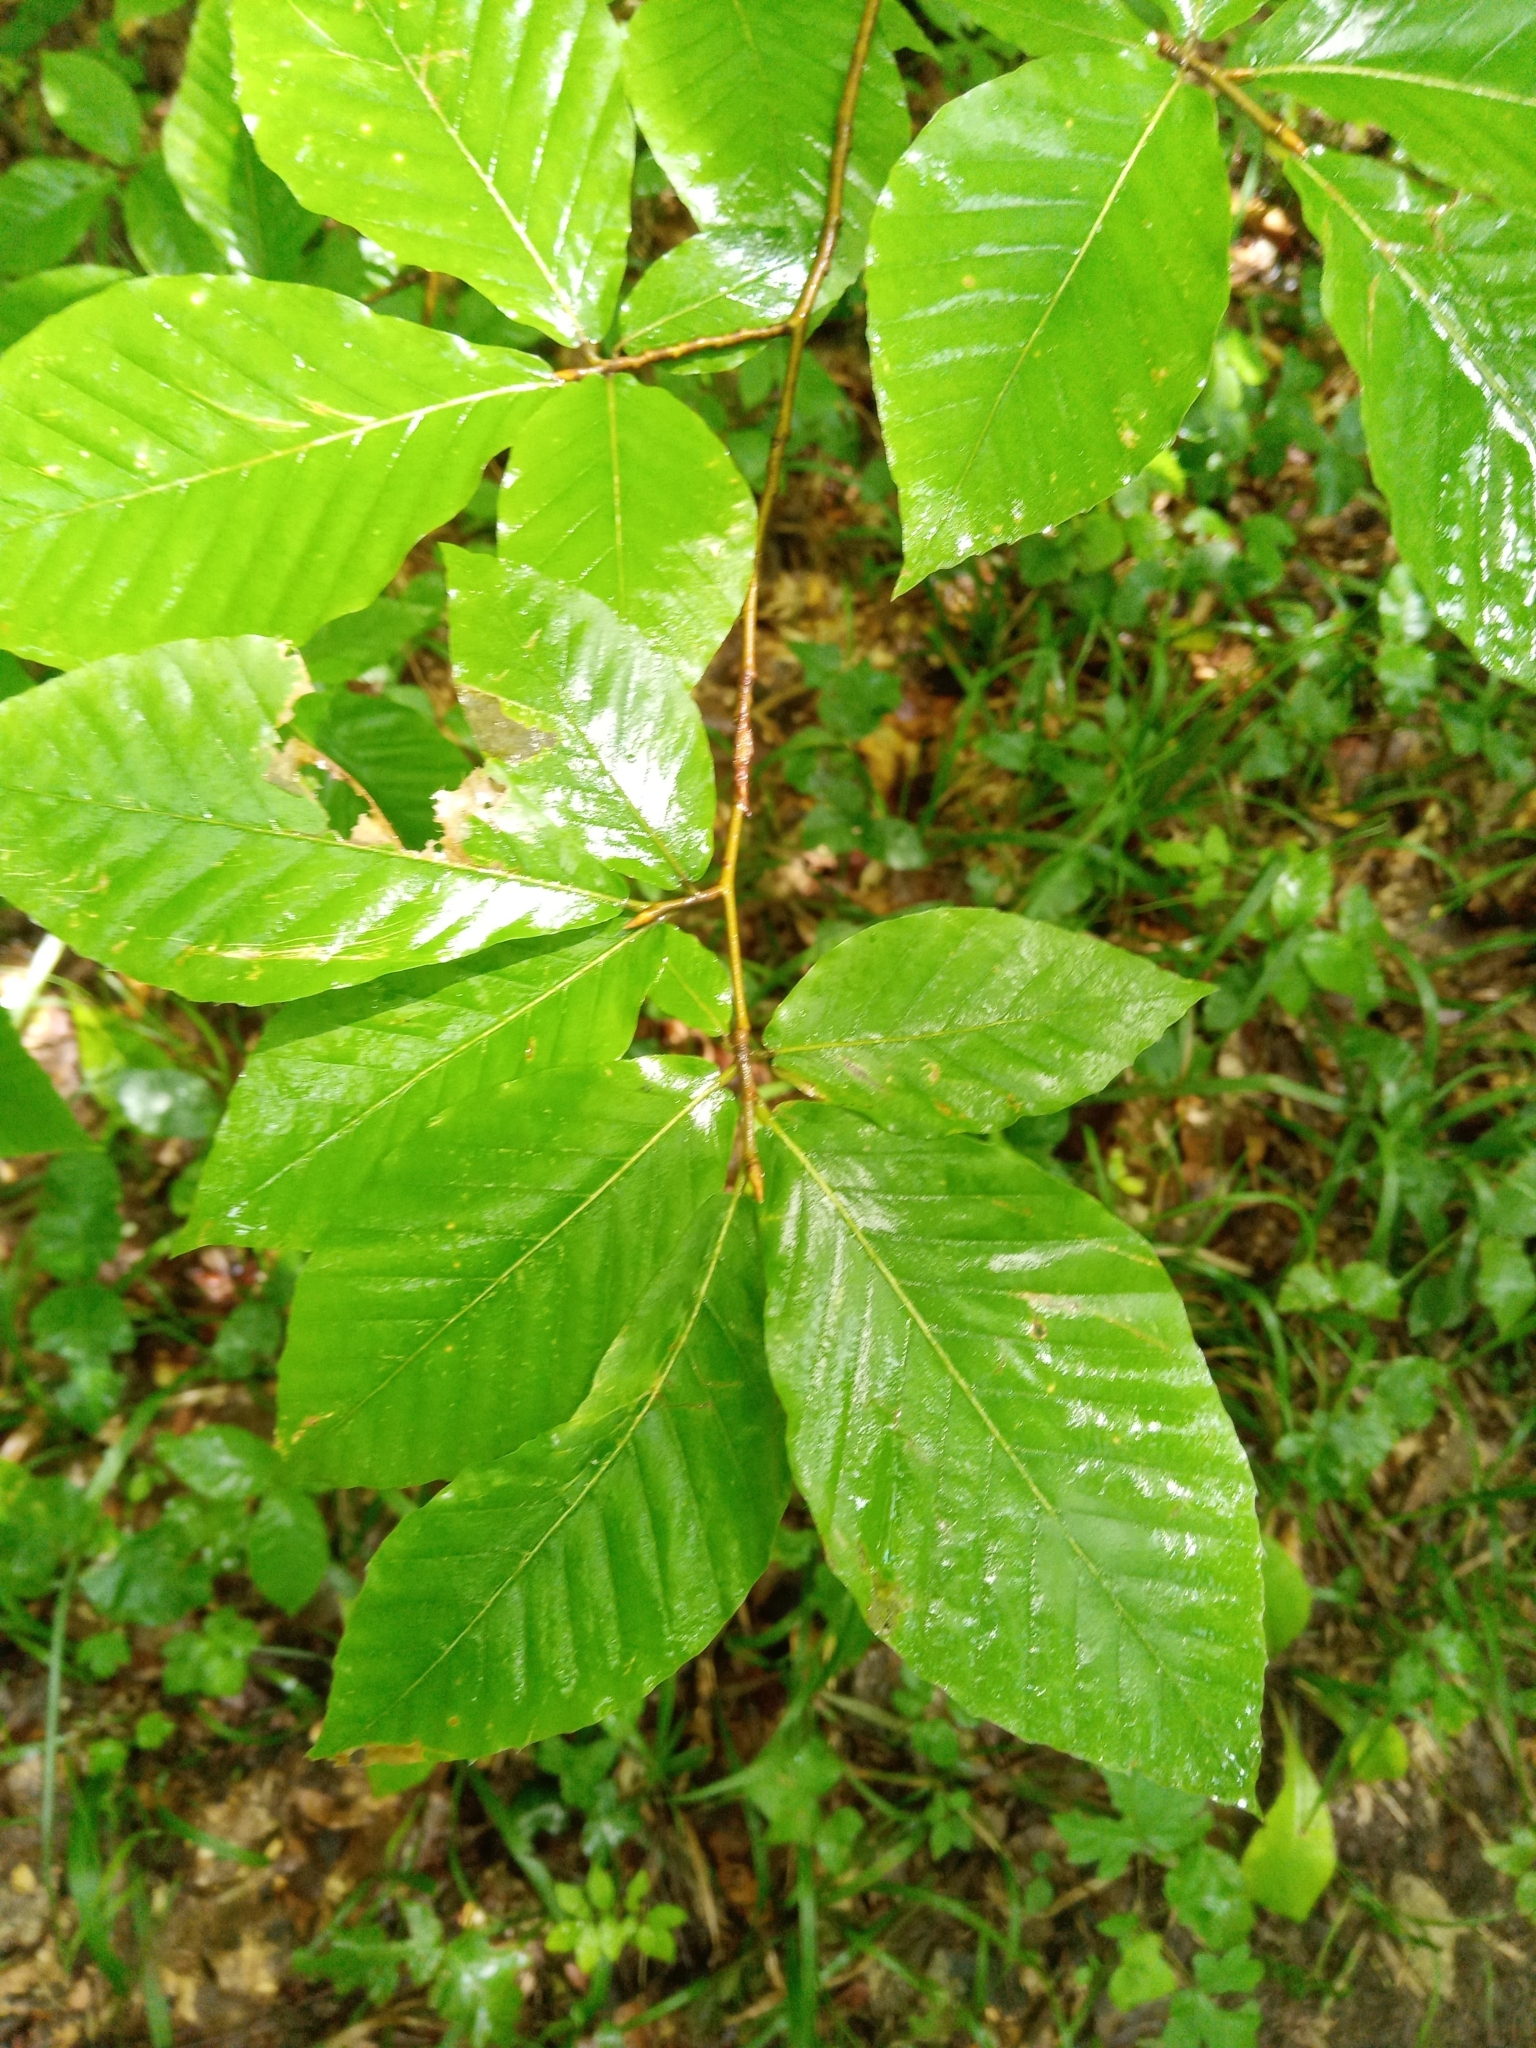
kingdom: Plantae
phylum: Tracheophyta
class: Magnoliopsida
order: Fagales
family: Fagaceae
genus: Fagus
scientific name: Fagus orientalis
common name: Oriental beech
